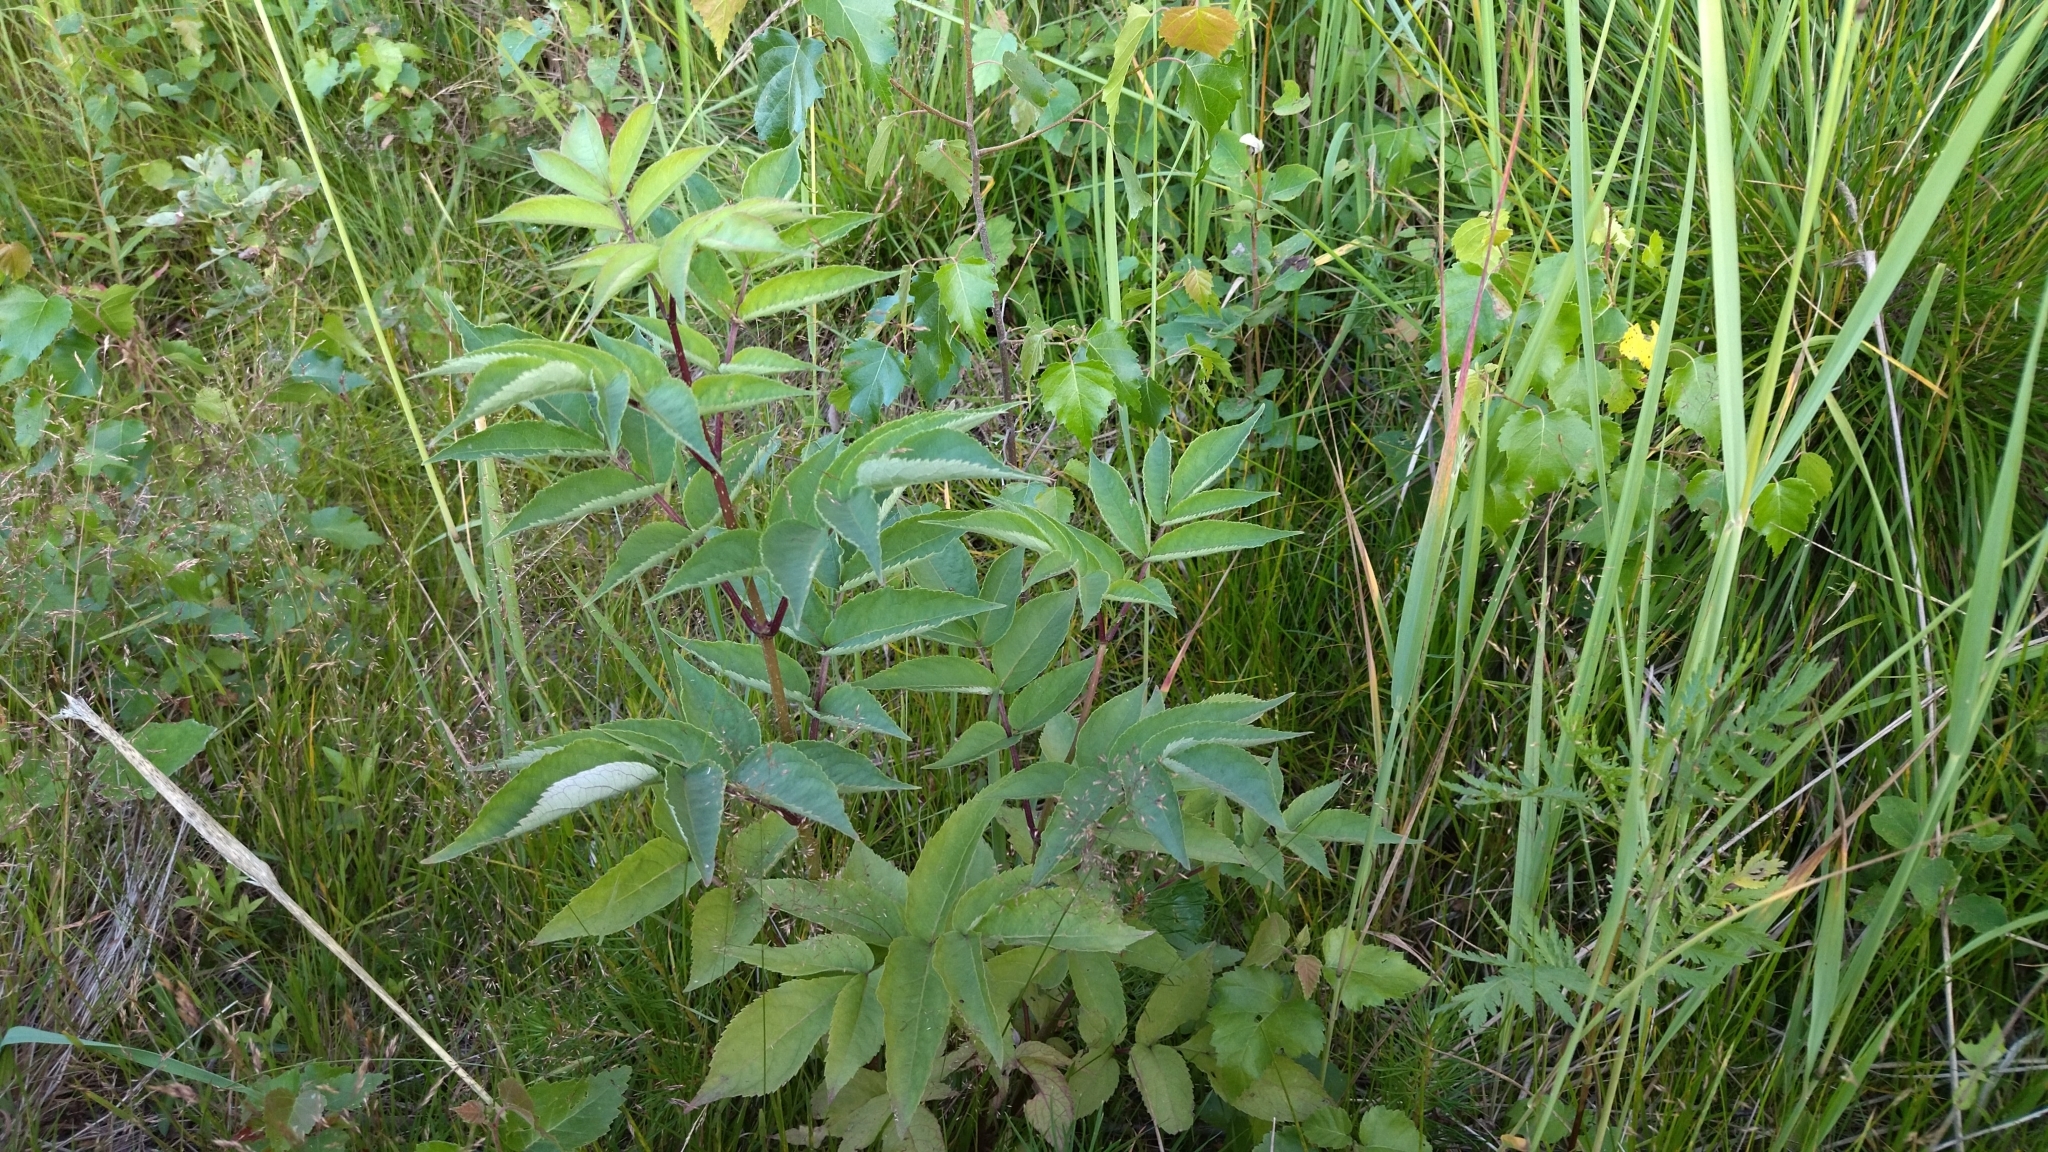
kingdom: Plantae
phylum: Tracheophyta
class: Magnoliopsida
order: Dipsacales
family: Viburnaceae
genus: Sambucus
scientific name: Sambucus racemosa
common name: Red-berried elder
